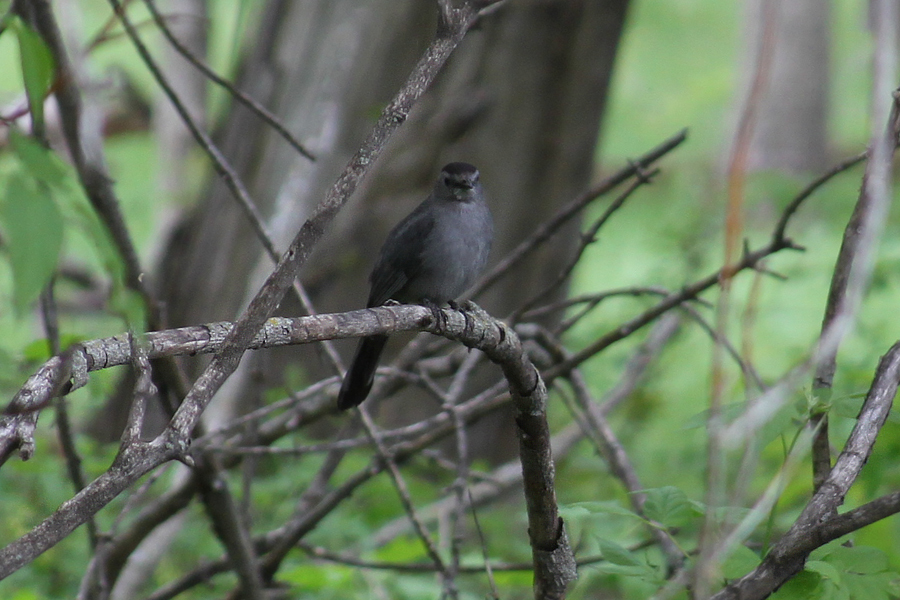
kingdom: Animalia
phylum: Chordata
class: Aves
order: Passeriformes
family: Mimidae
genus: Dumetella
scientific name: Dumetella carolinensis
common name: Gray catbird
